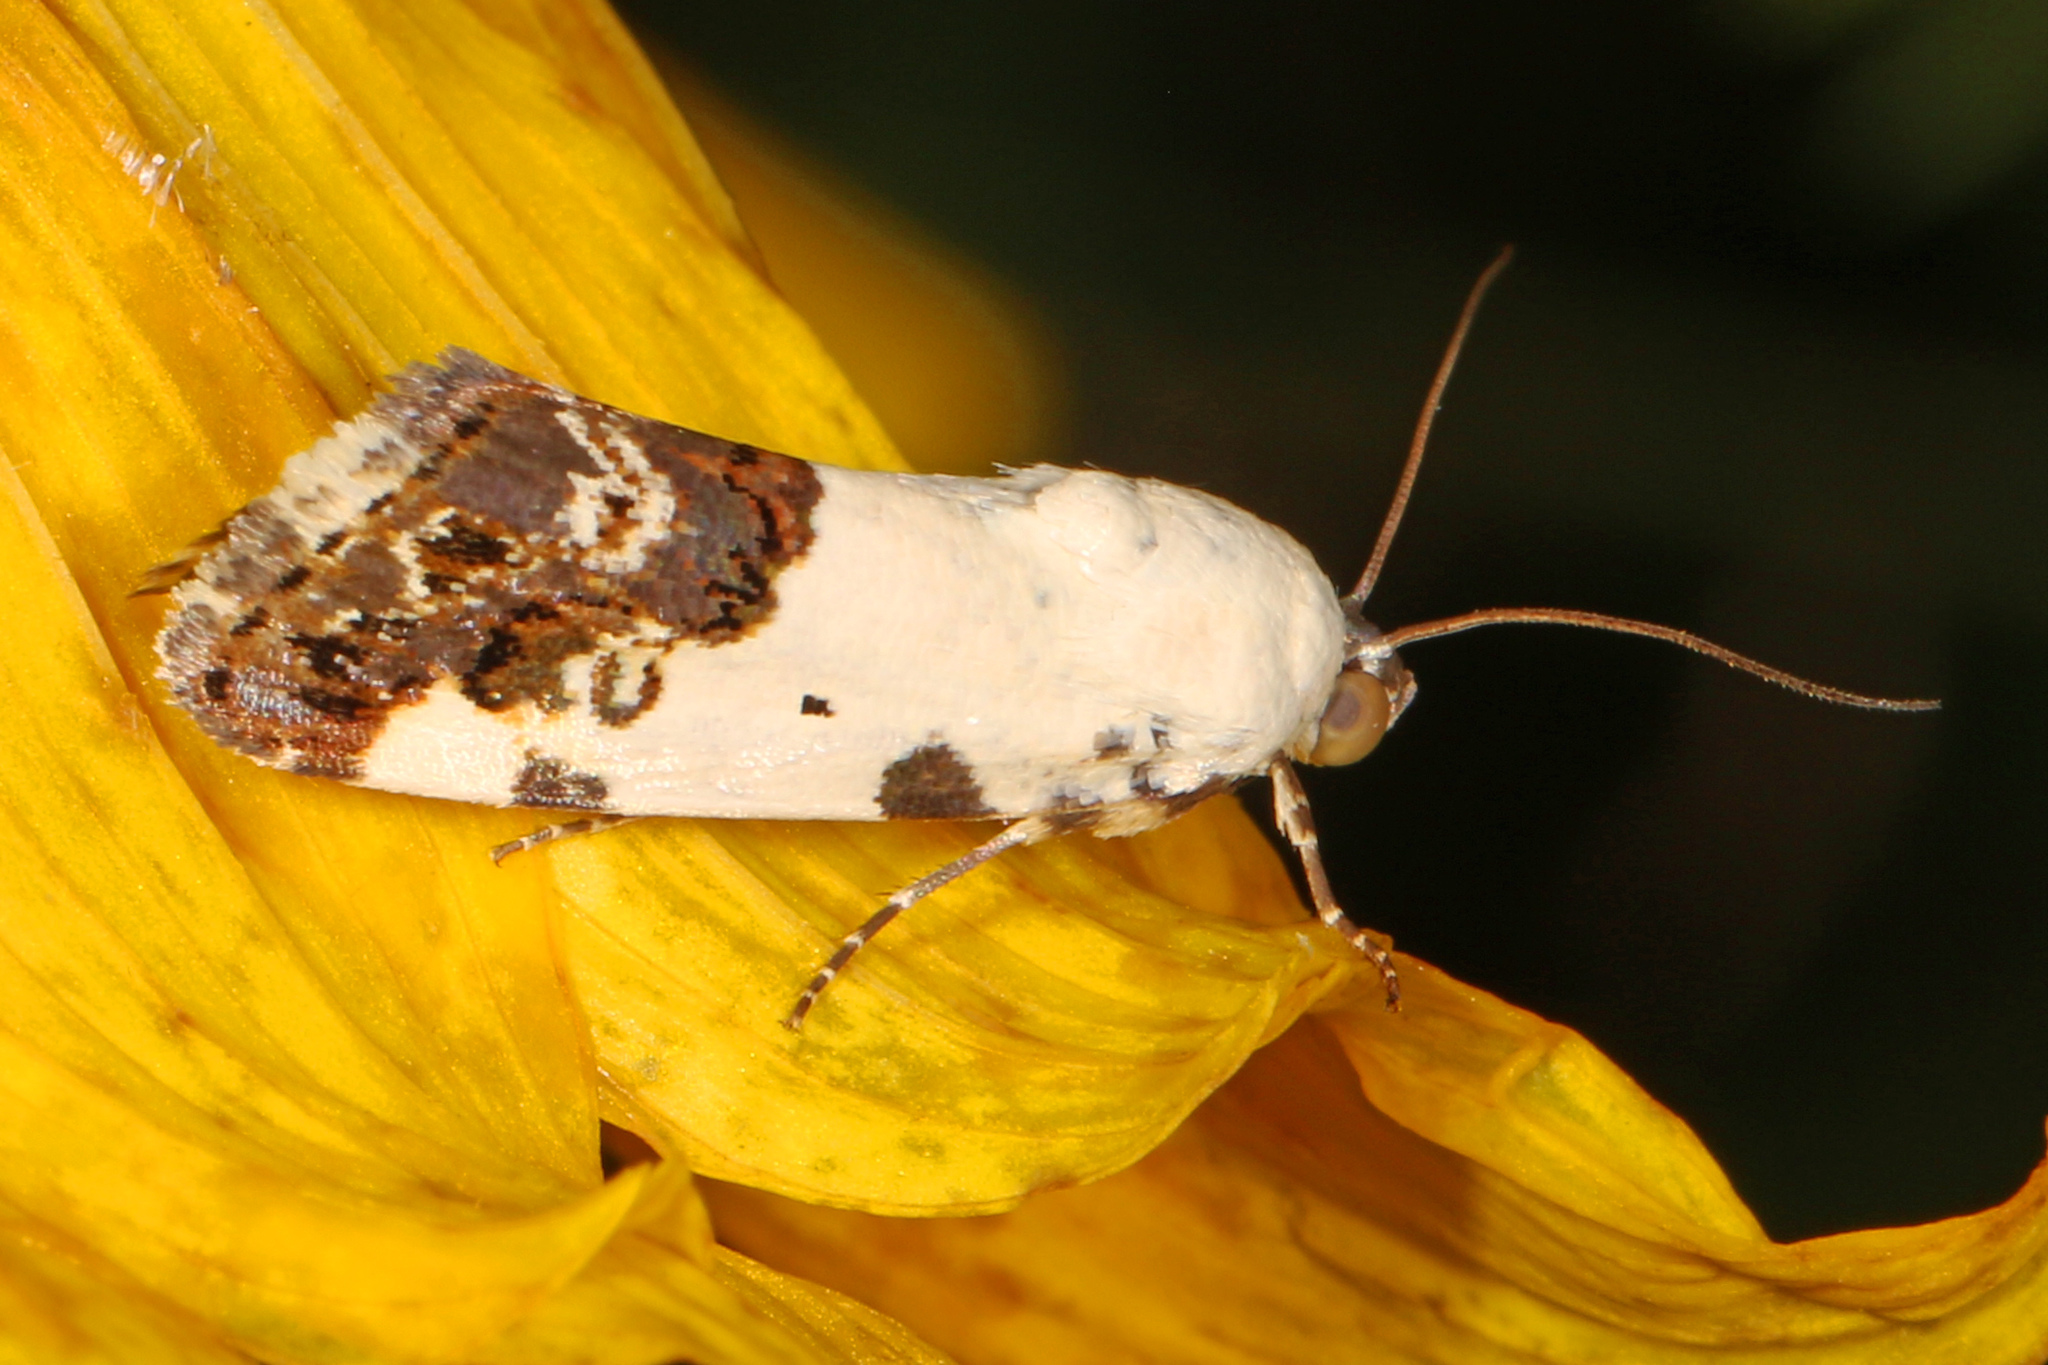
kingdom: Animalia
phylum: Arthropoda
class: Insecta
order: Lepidoptera
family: Noctuidae
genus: Acontia
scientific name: Acontia aprica
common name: Nun
